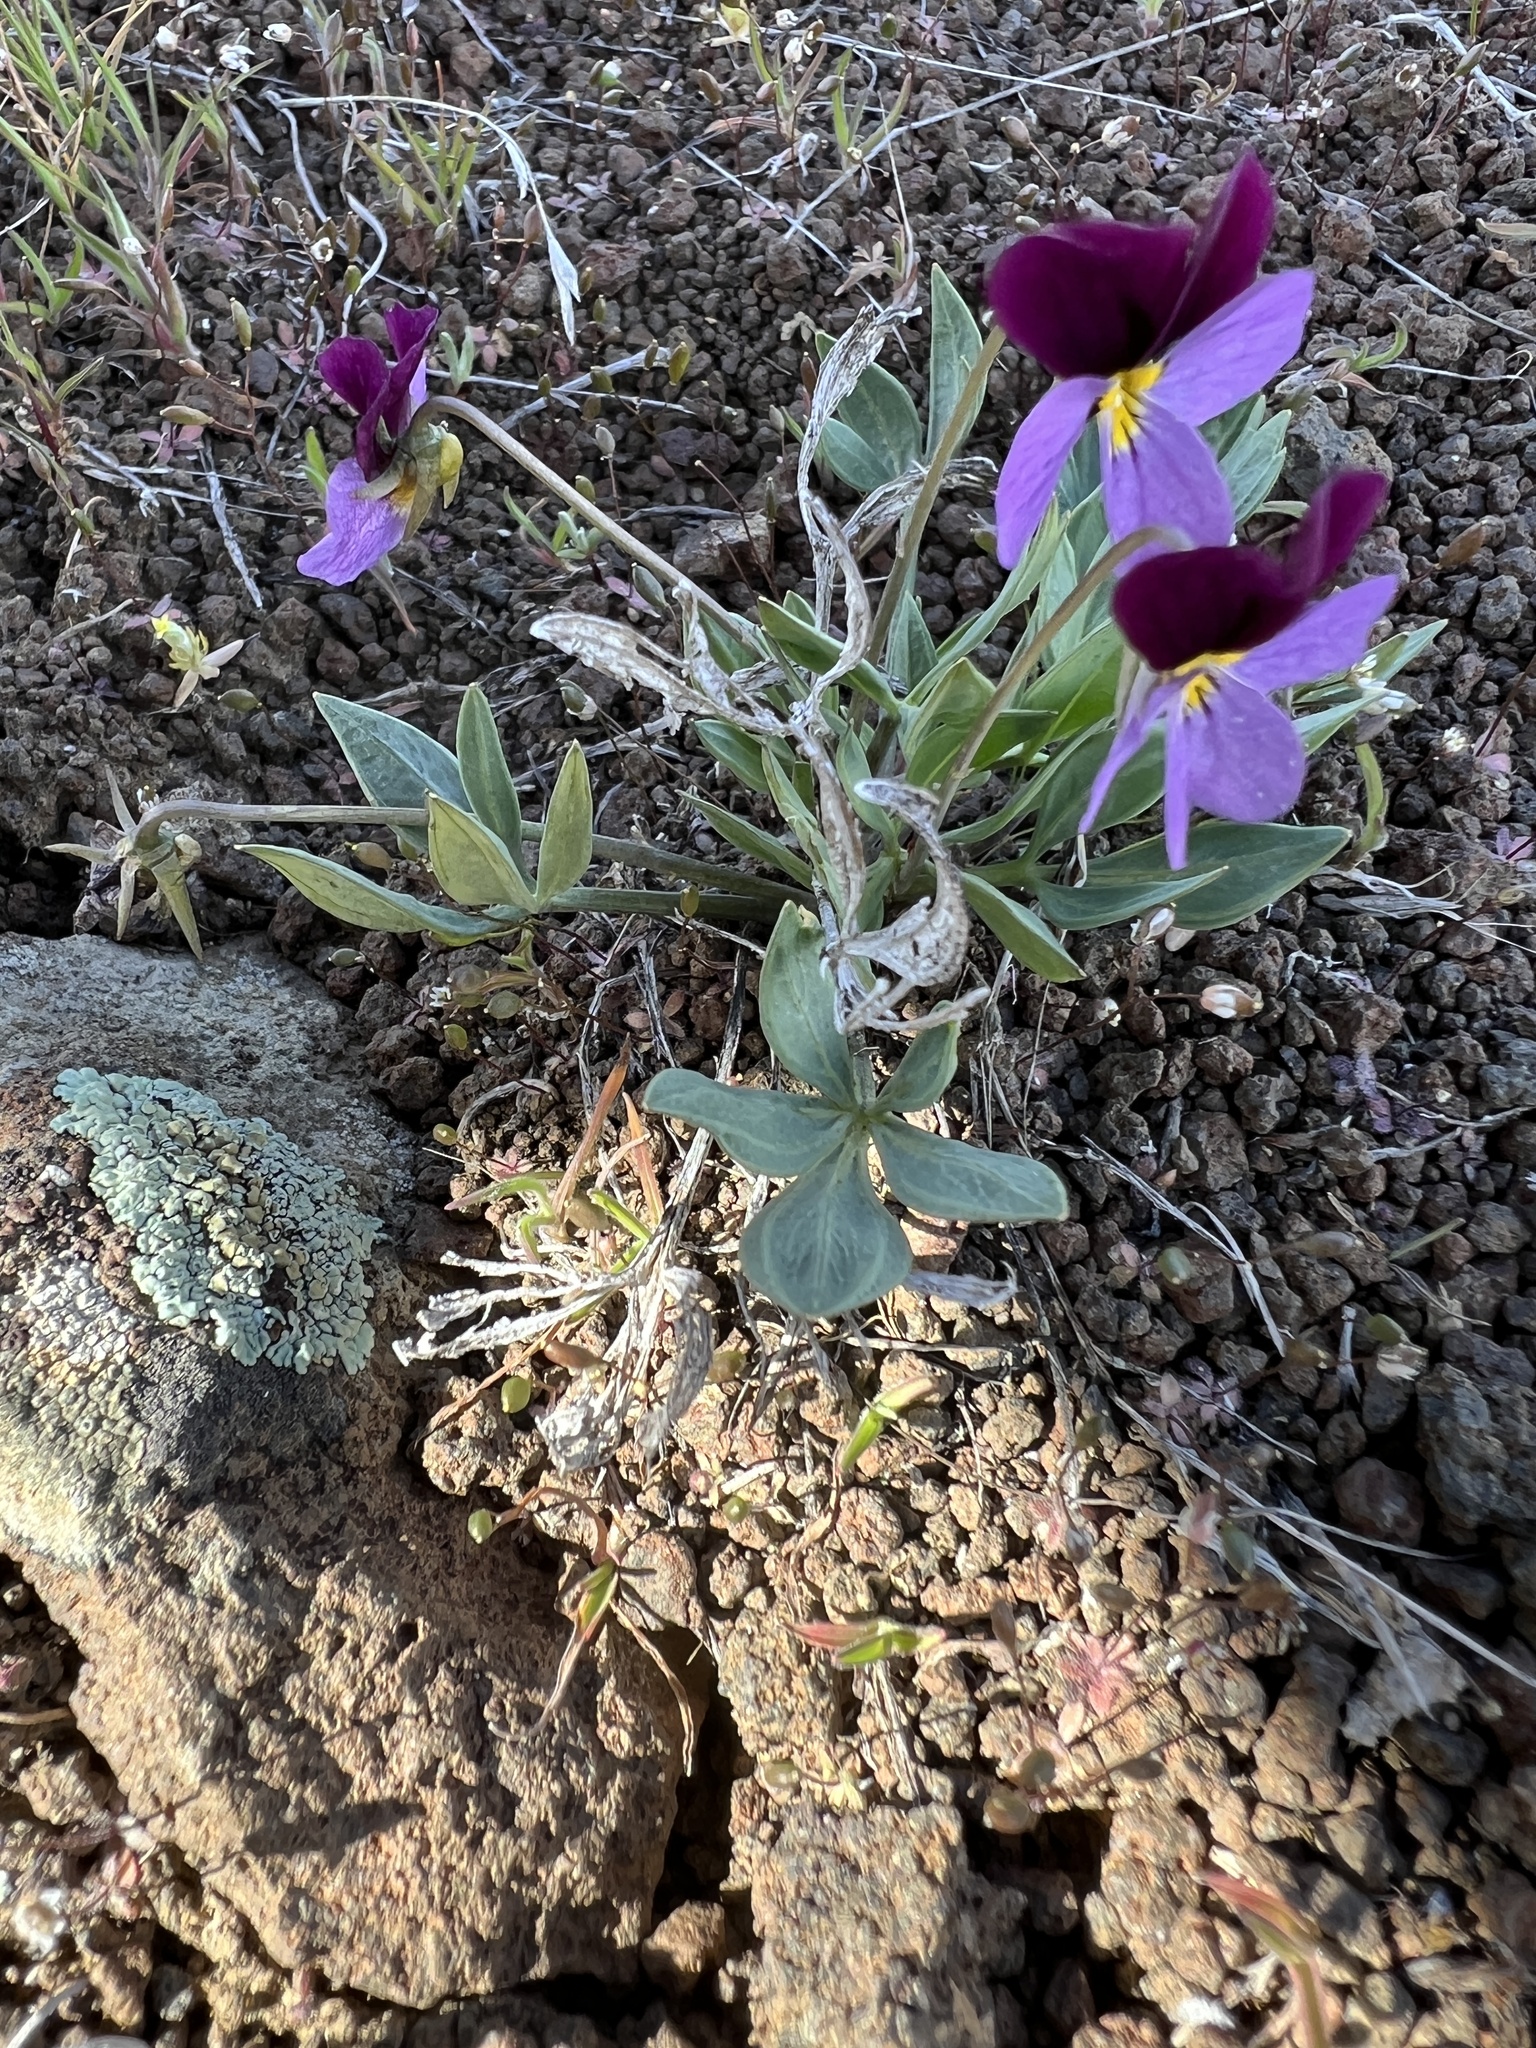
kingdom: Plantae
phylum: Tracheophyta
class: Magnoliopsida
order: Malpighiales
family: Violaceae
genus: Viola
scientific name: Viola trinervata
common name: Sagebrush violet
